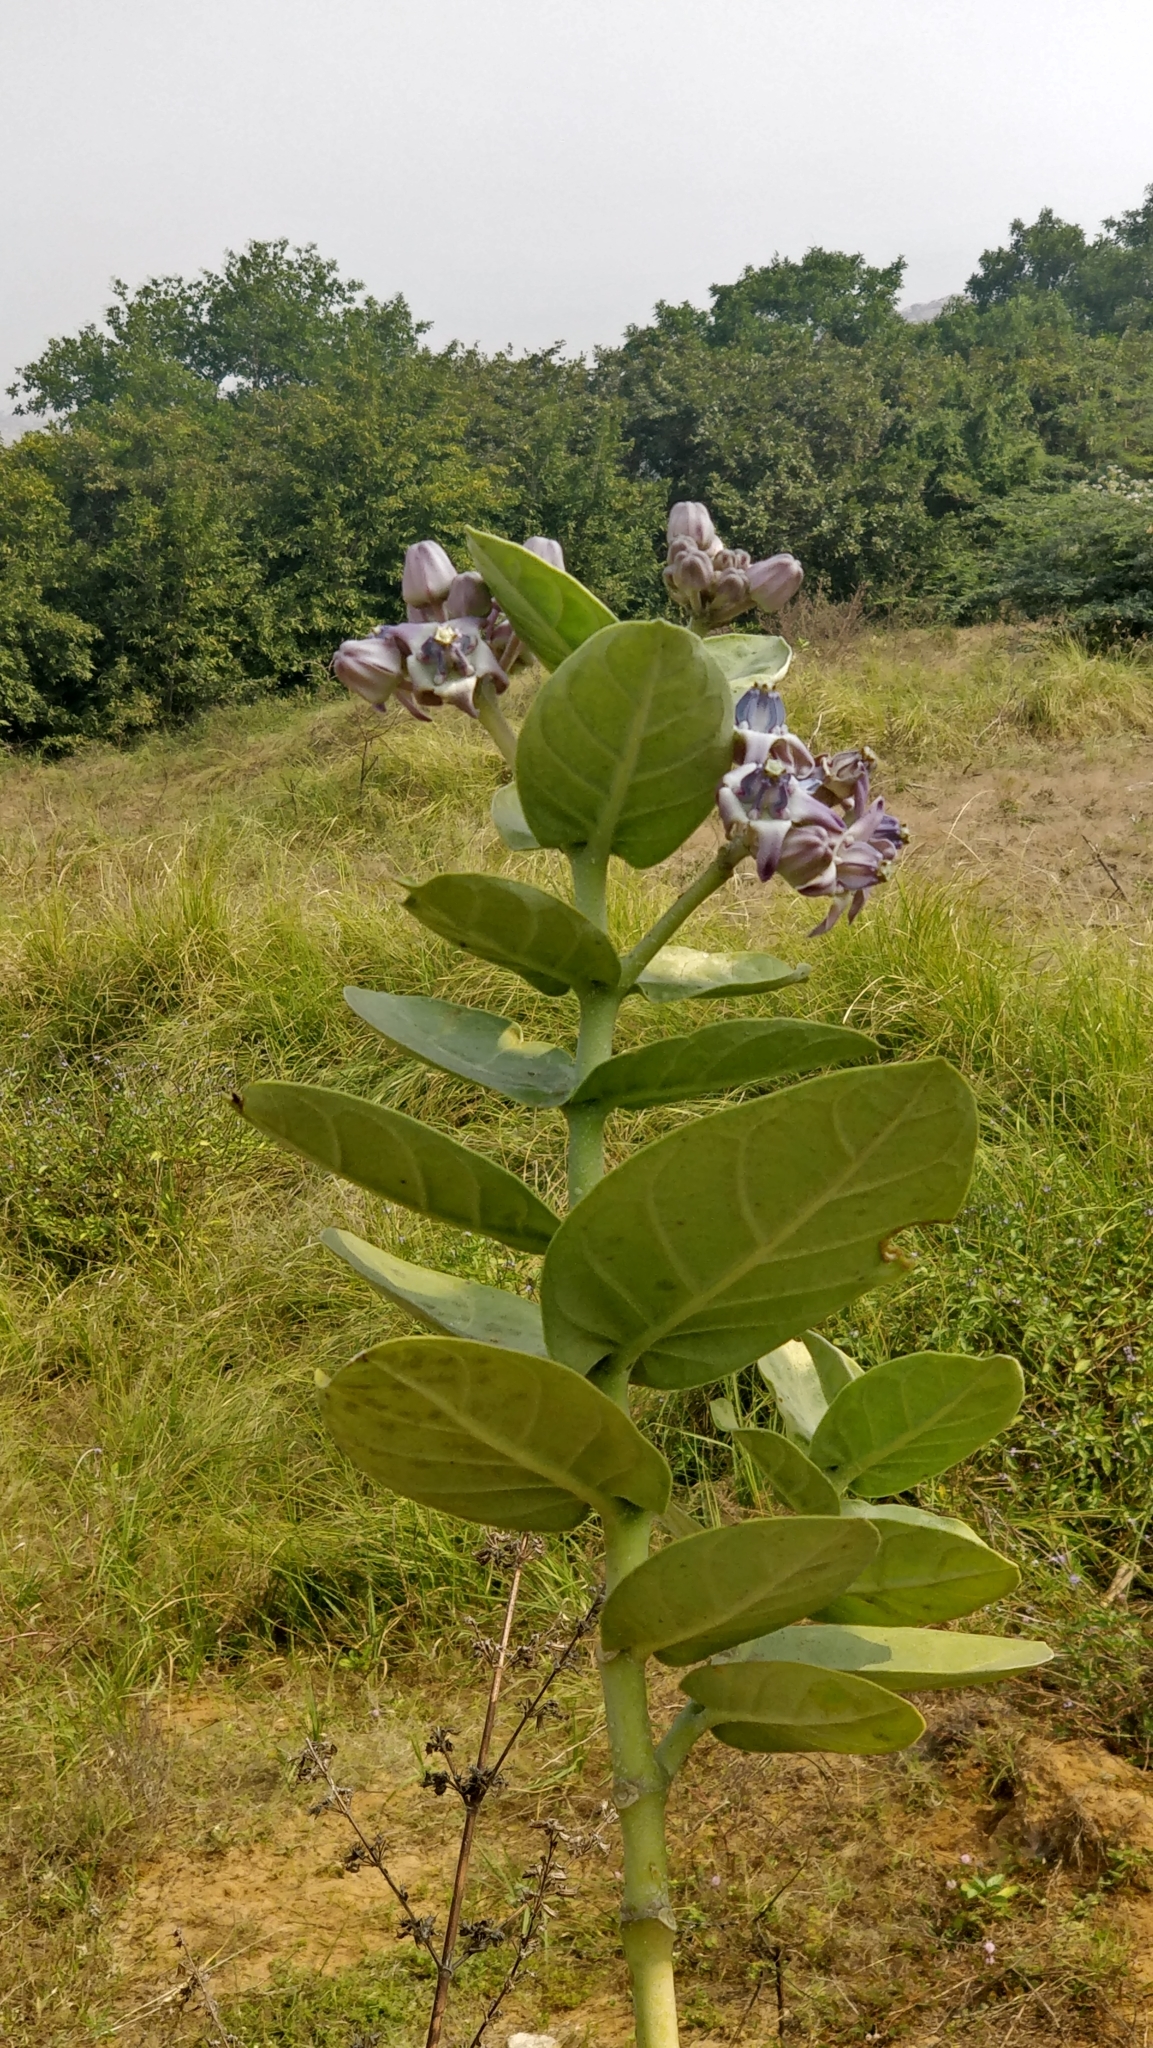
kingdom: Plantae
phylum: Tracheophyta
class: Magnoliopsida
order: Gentianales
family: Apocynaceae
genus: Calotropis
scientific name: Calotropis gigantea
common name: Crown flower
